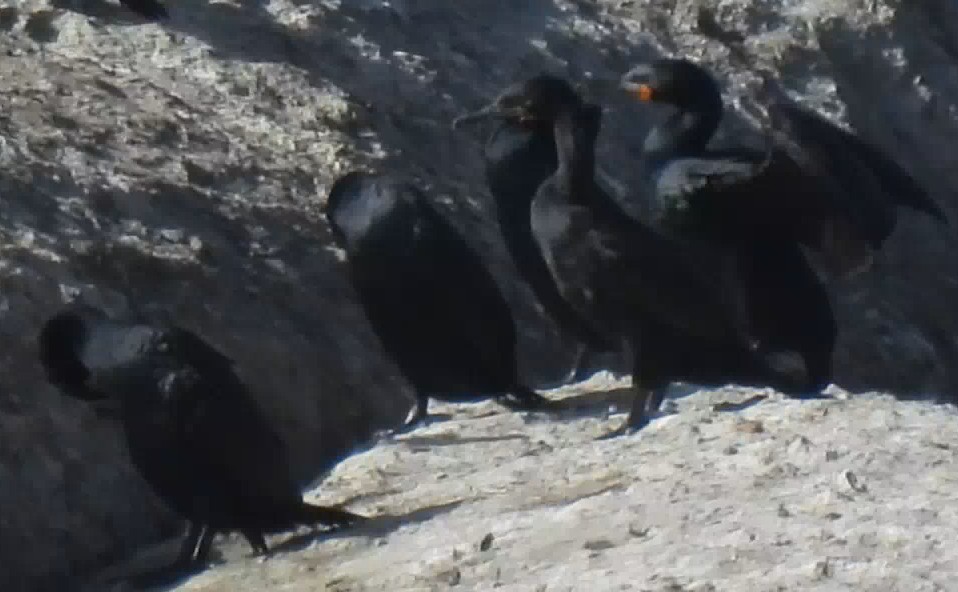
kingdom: Animalia
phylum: Chordata
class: Aves
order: Suliformes
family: Phalacrocoracidae
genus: Phalacrocorax
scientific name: Phalacrocorax capensis
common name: Cape cormorant
